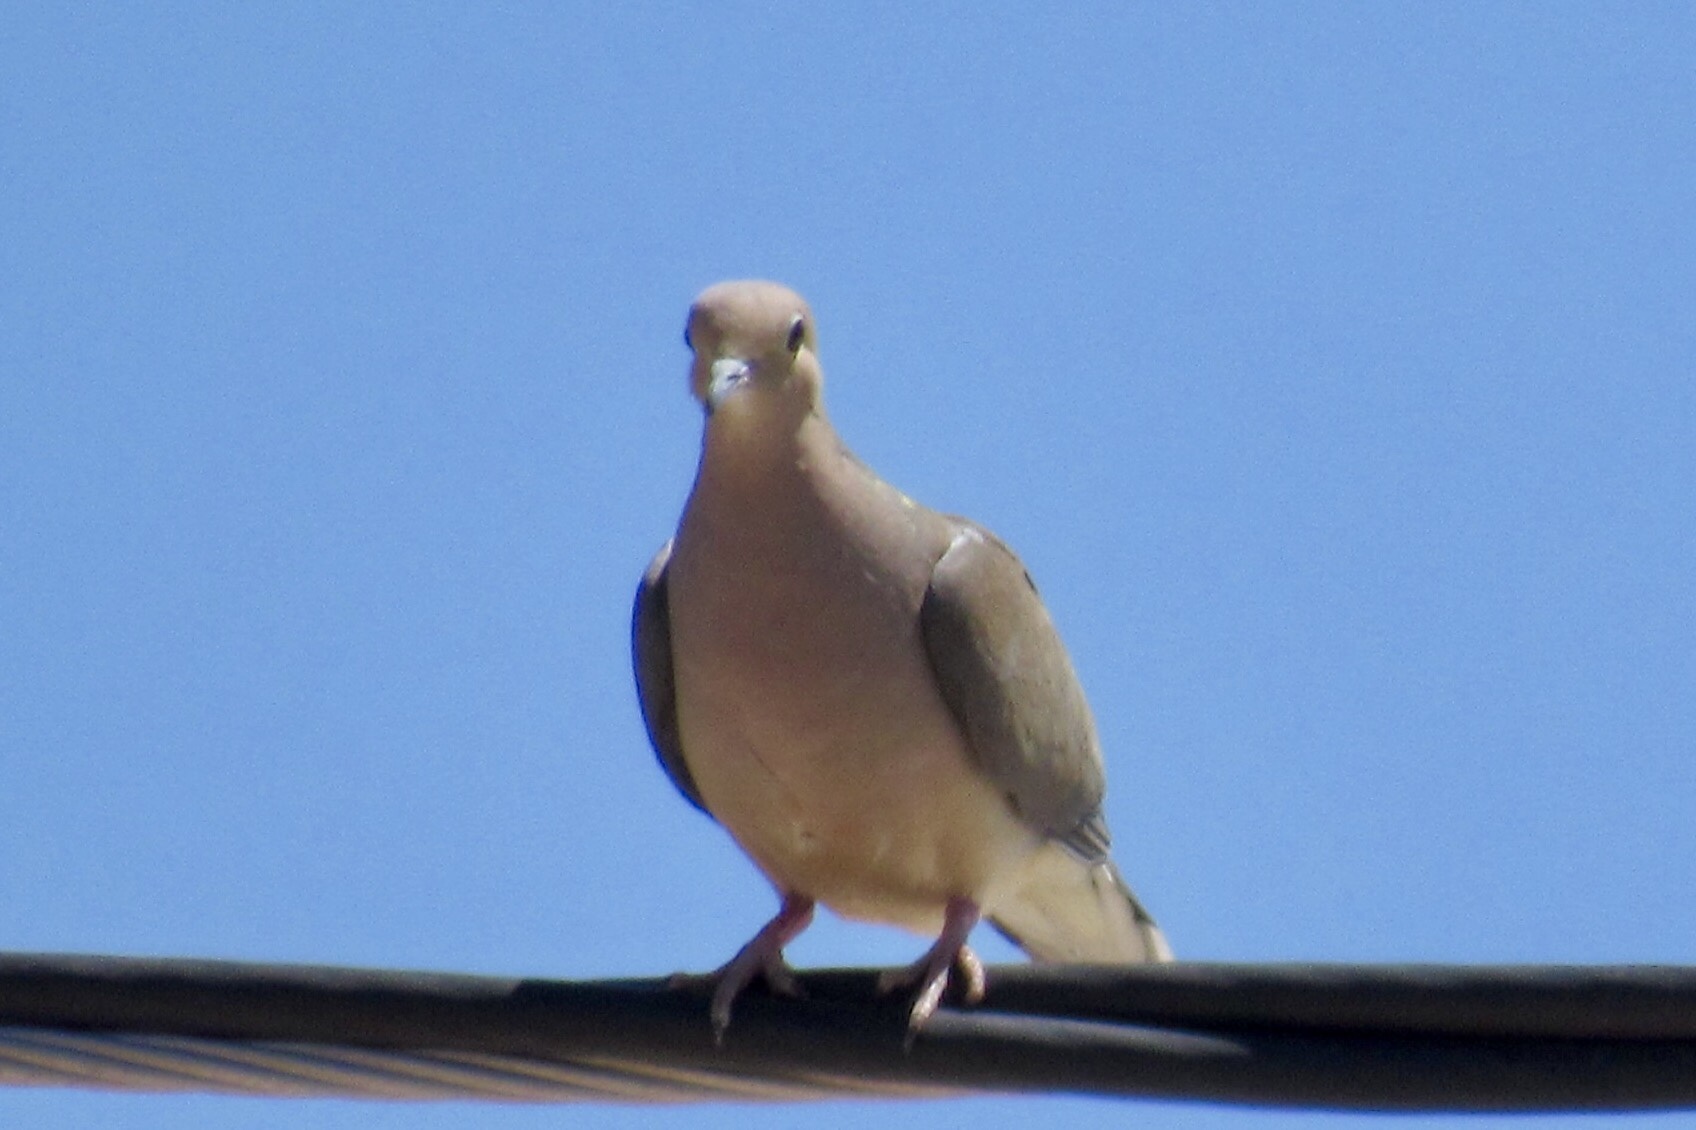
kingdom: Animalia
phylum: Chordata
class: Aves
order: Columbiformes
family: Columbidae
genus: Zenaida
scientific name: Zenaida macroura
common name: Mourning dove
